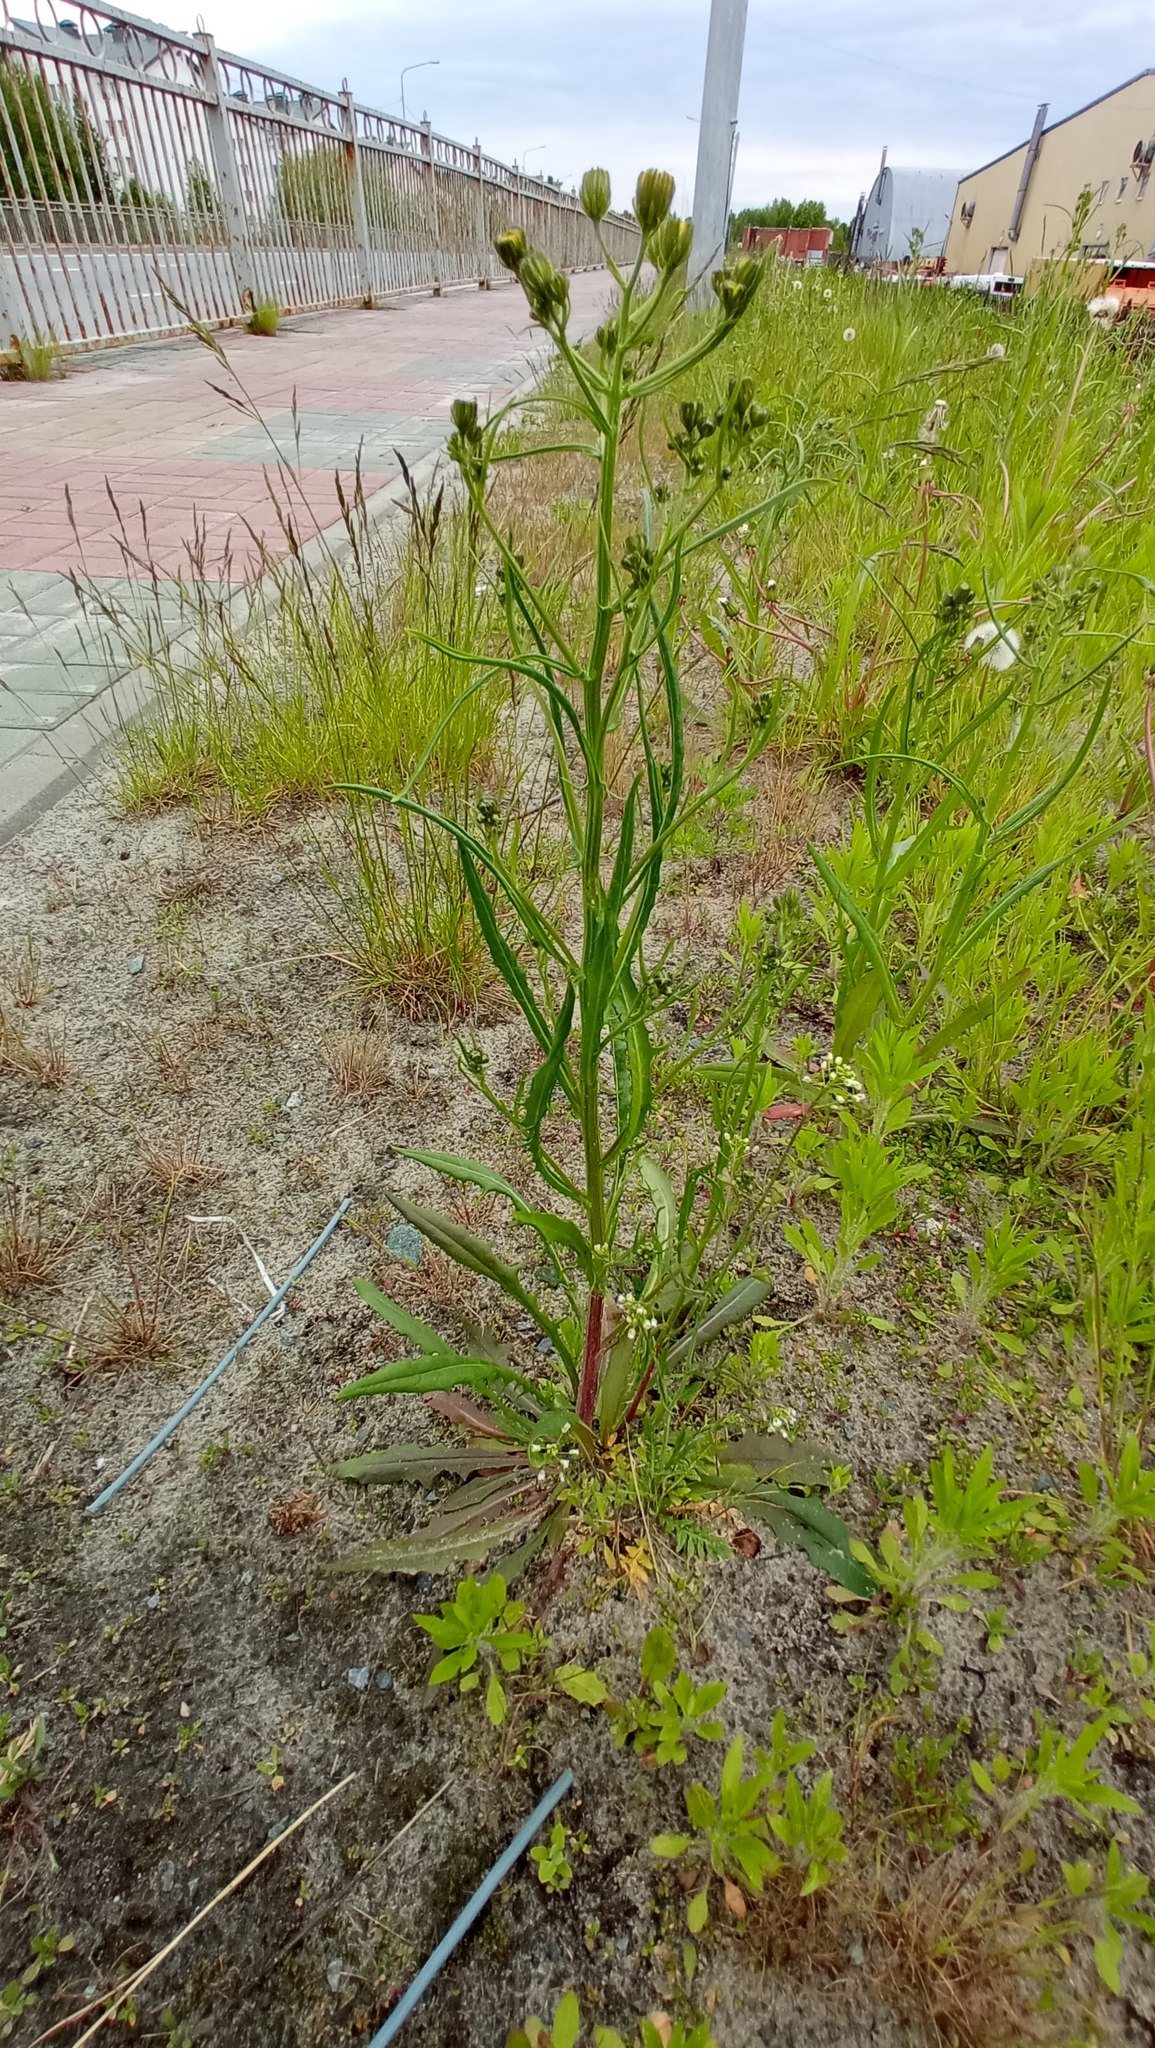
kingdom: Plantae
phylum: Tracheophyta
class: Magnoliopsida
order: Asterales
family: Asteraceae
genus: Crepis
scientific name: Crepis tectorum
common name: Narrow-leaved hawk's-beard
